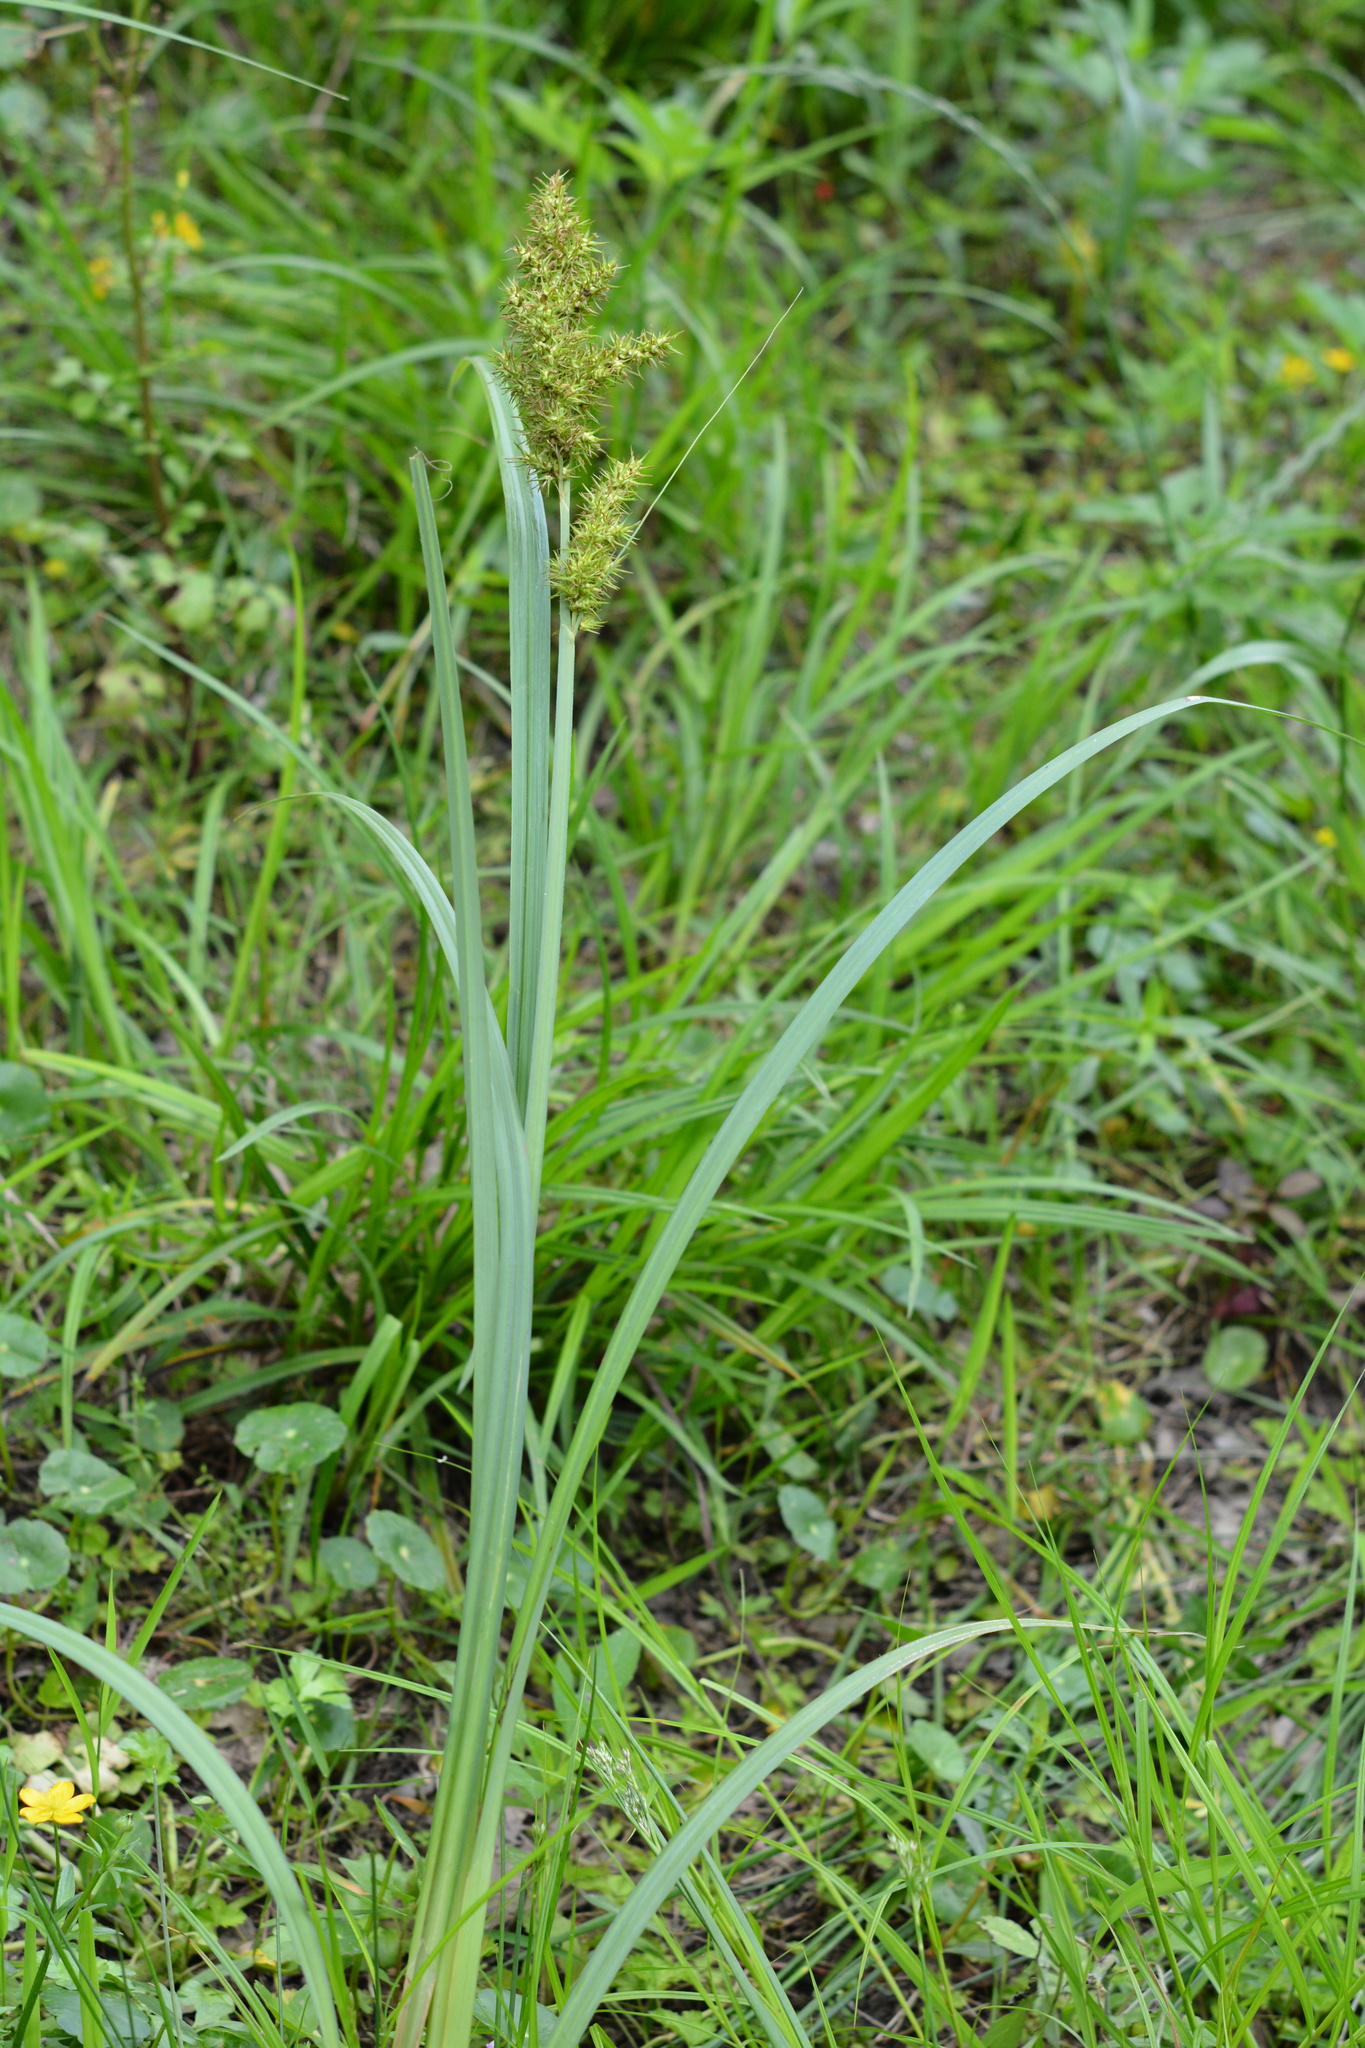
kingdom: Plantae
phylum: Tracheophyta
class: Liliopsida
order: Poales
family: Cyperaceae
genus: Carex
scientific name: Carex crus-corvi
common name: Crow-spur sedge
